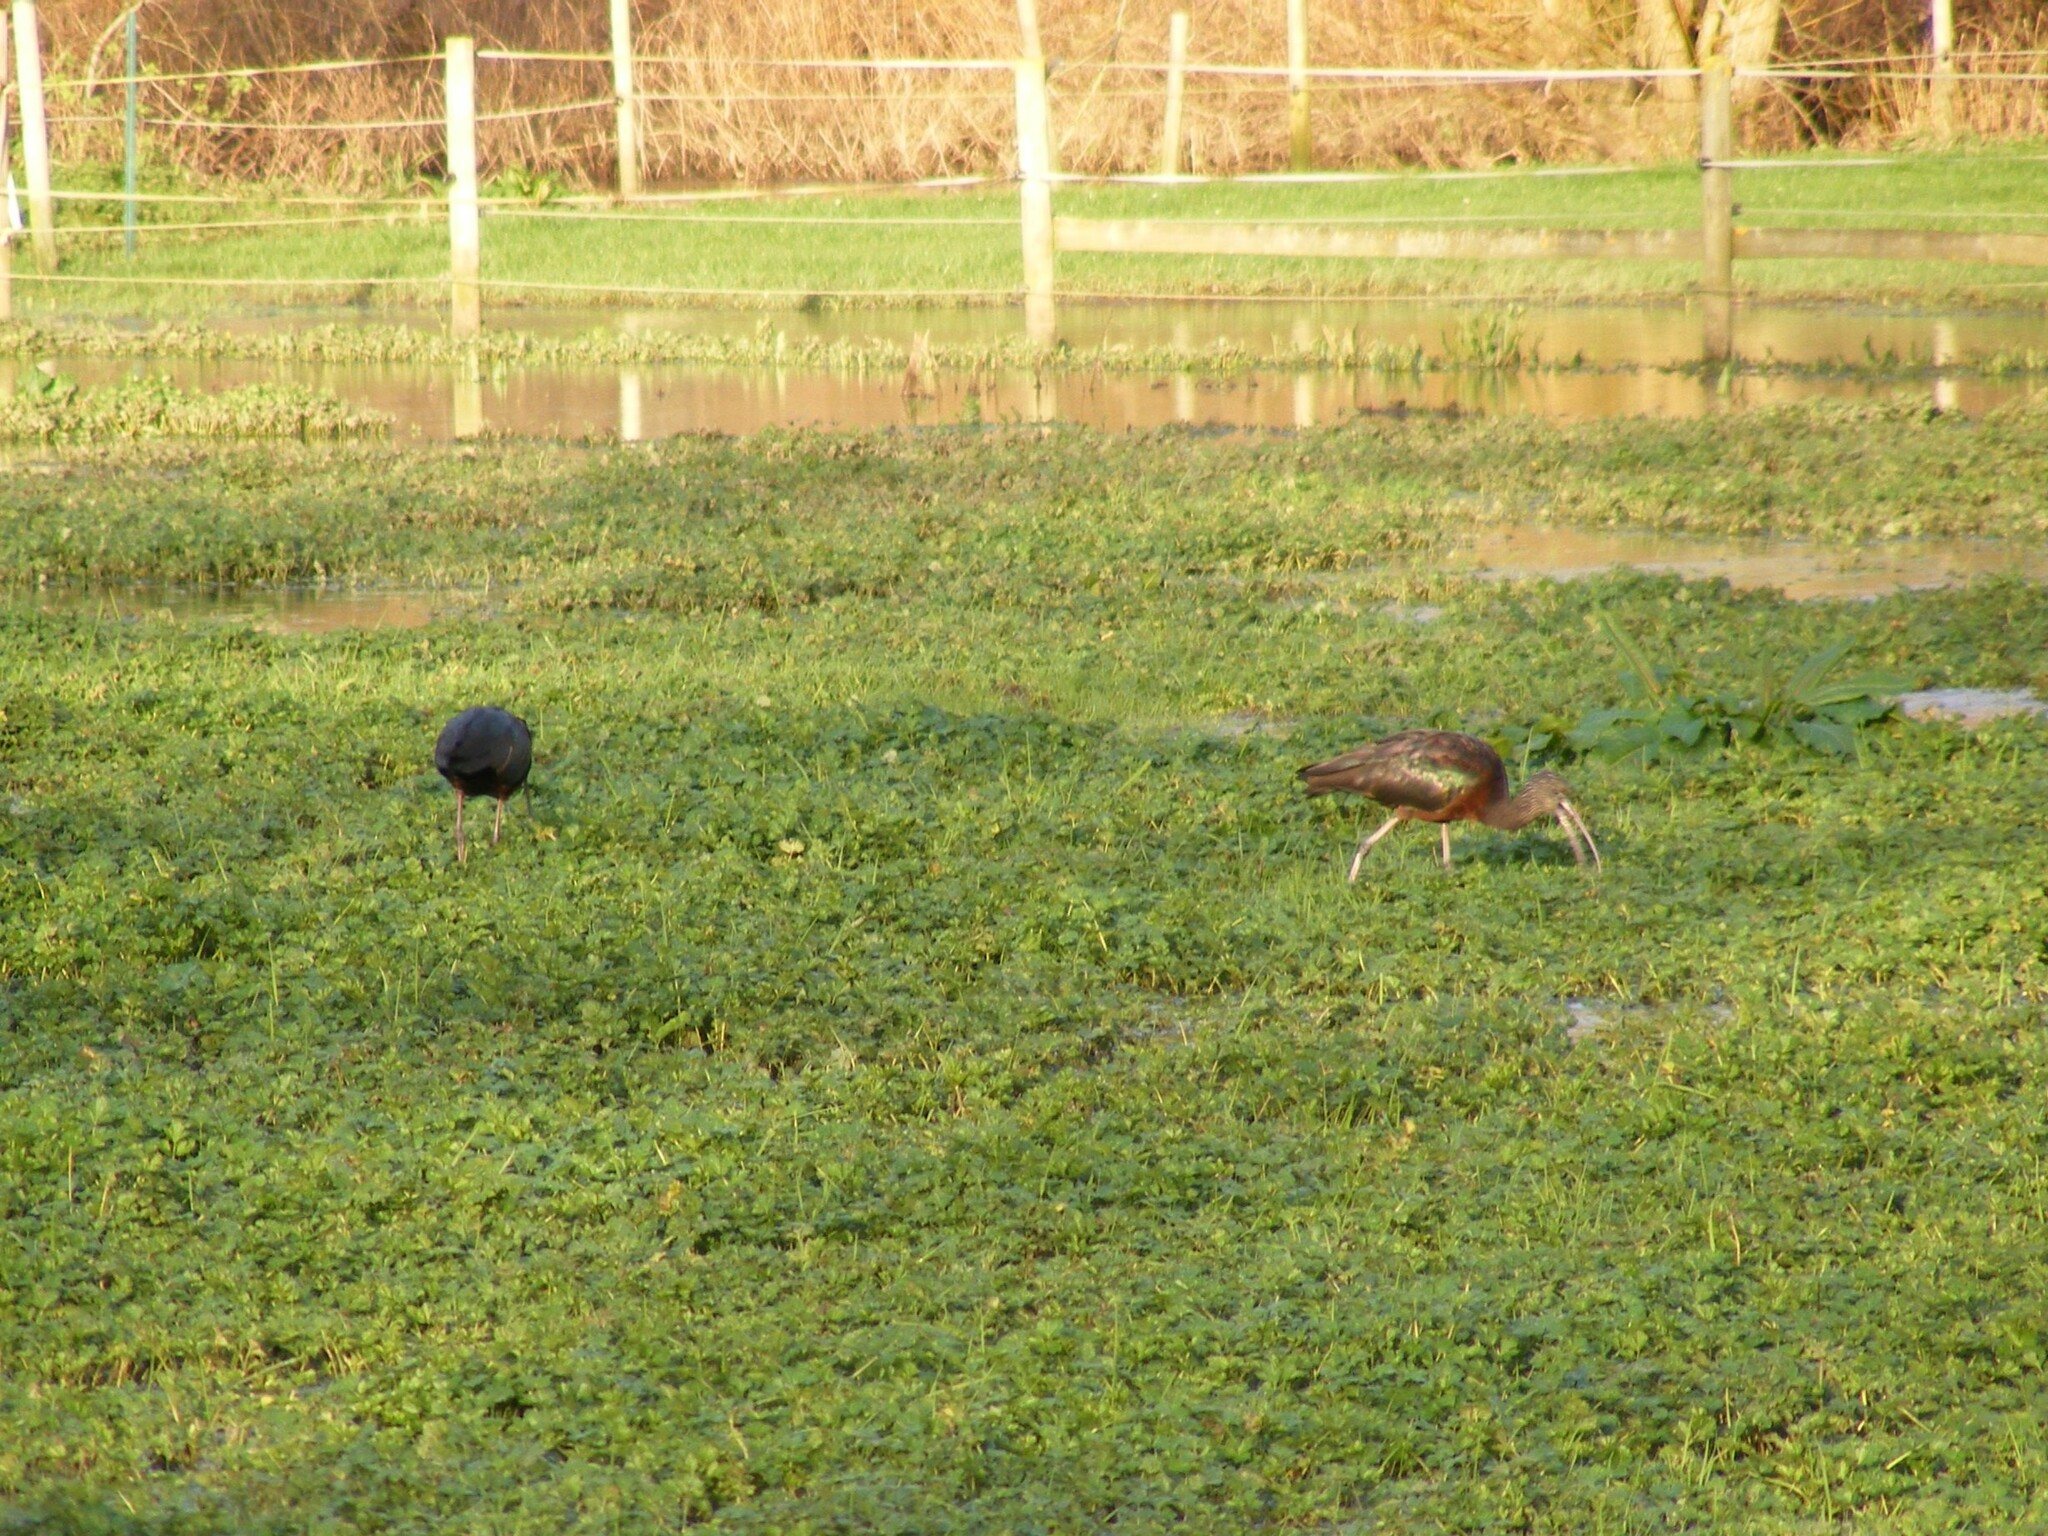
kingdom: Animalia
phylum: Chordata
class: Aves
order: Pelecaniformes
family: Threskiornithidae
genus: Plegadis
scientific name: Plegadis falcinellus
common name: Glossy ibis
